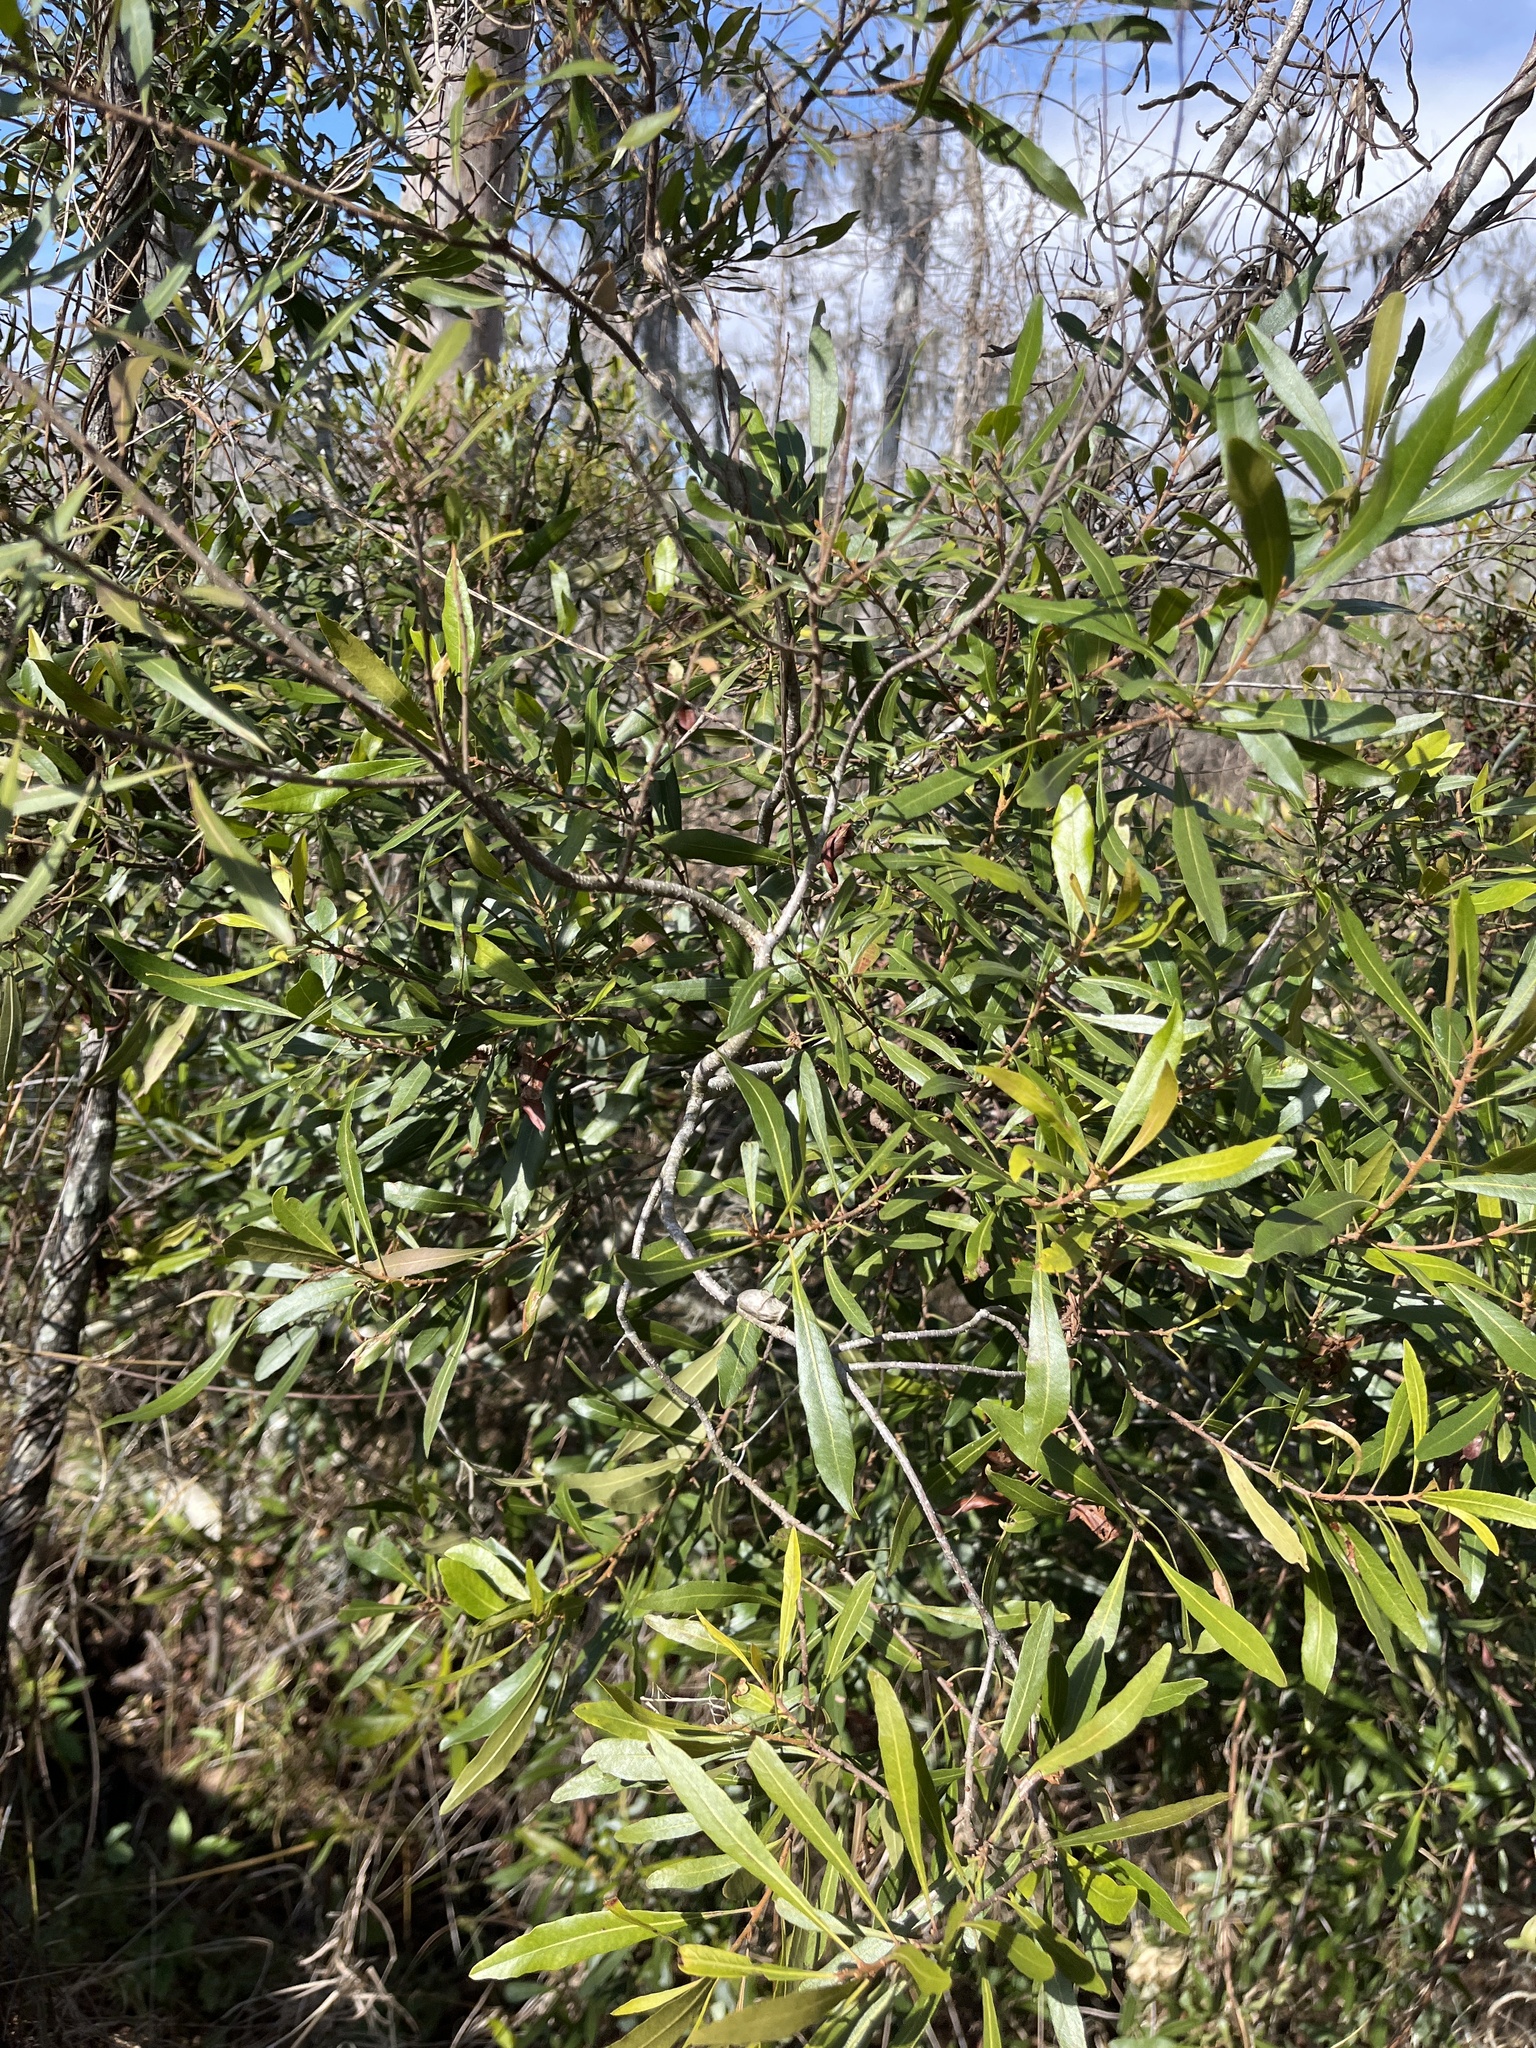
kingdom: Plantae
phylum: Tracheophyta
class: Magnoliopsida
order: Fagales
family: Myricaceae
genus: Morella
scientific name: Morella cerifera
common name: Wax myrtle
